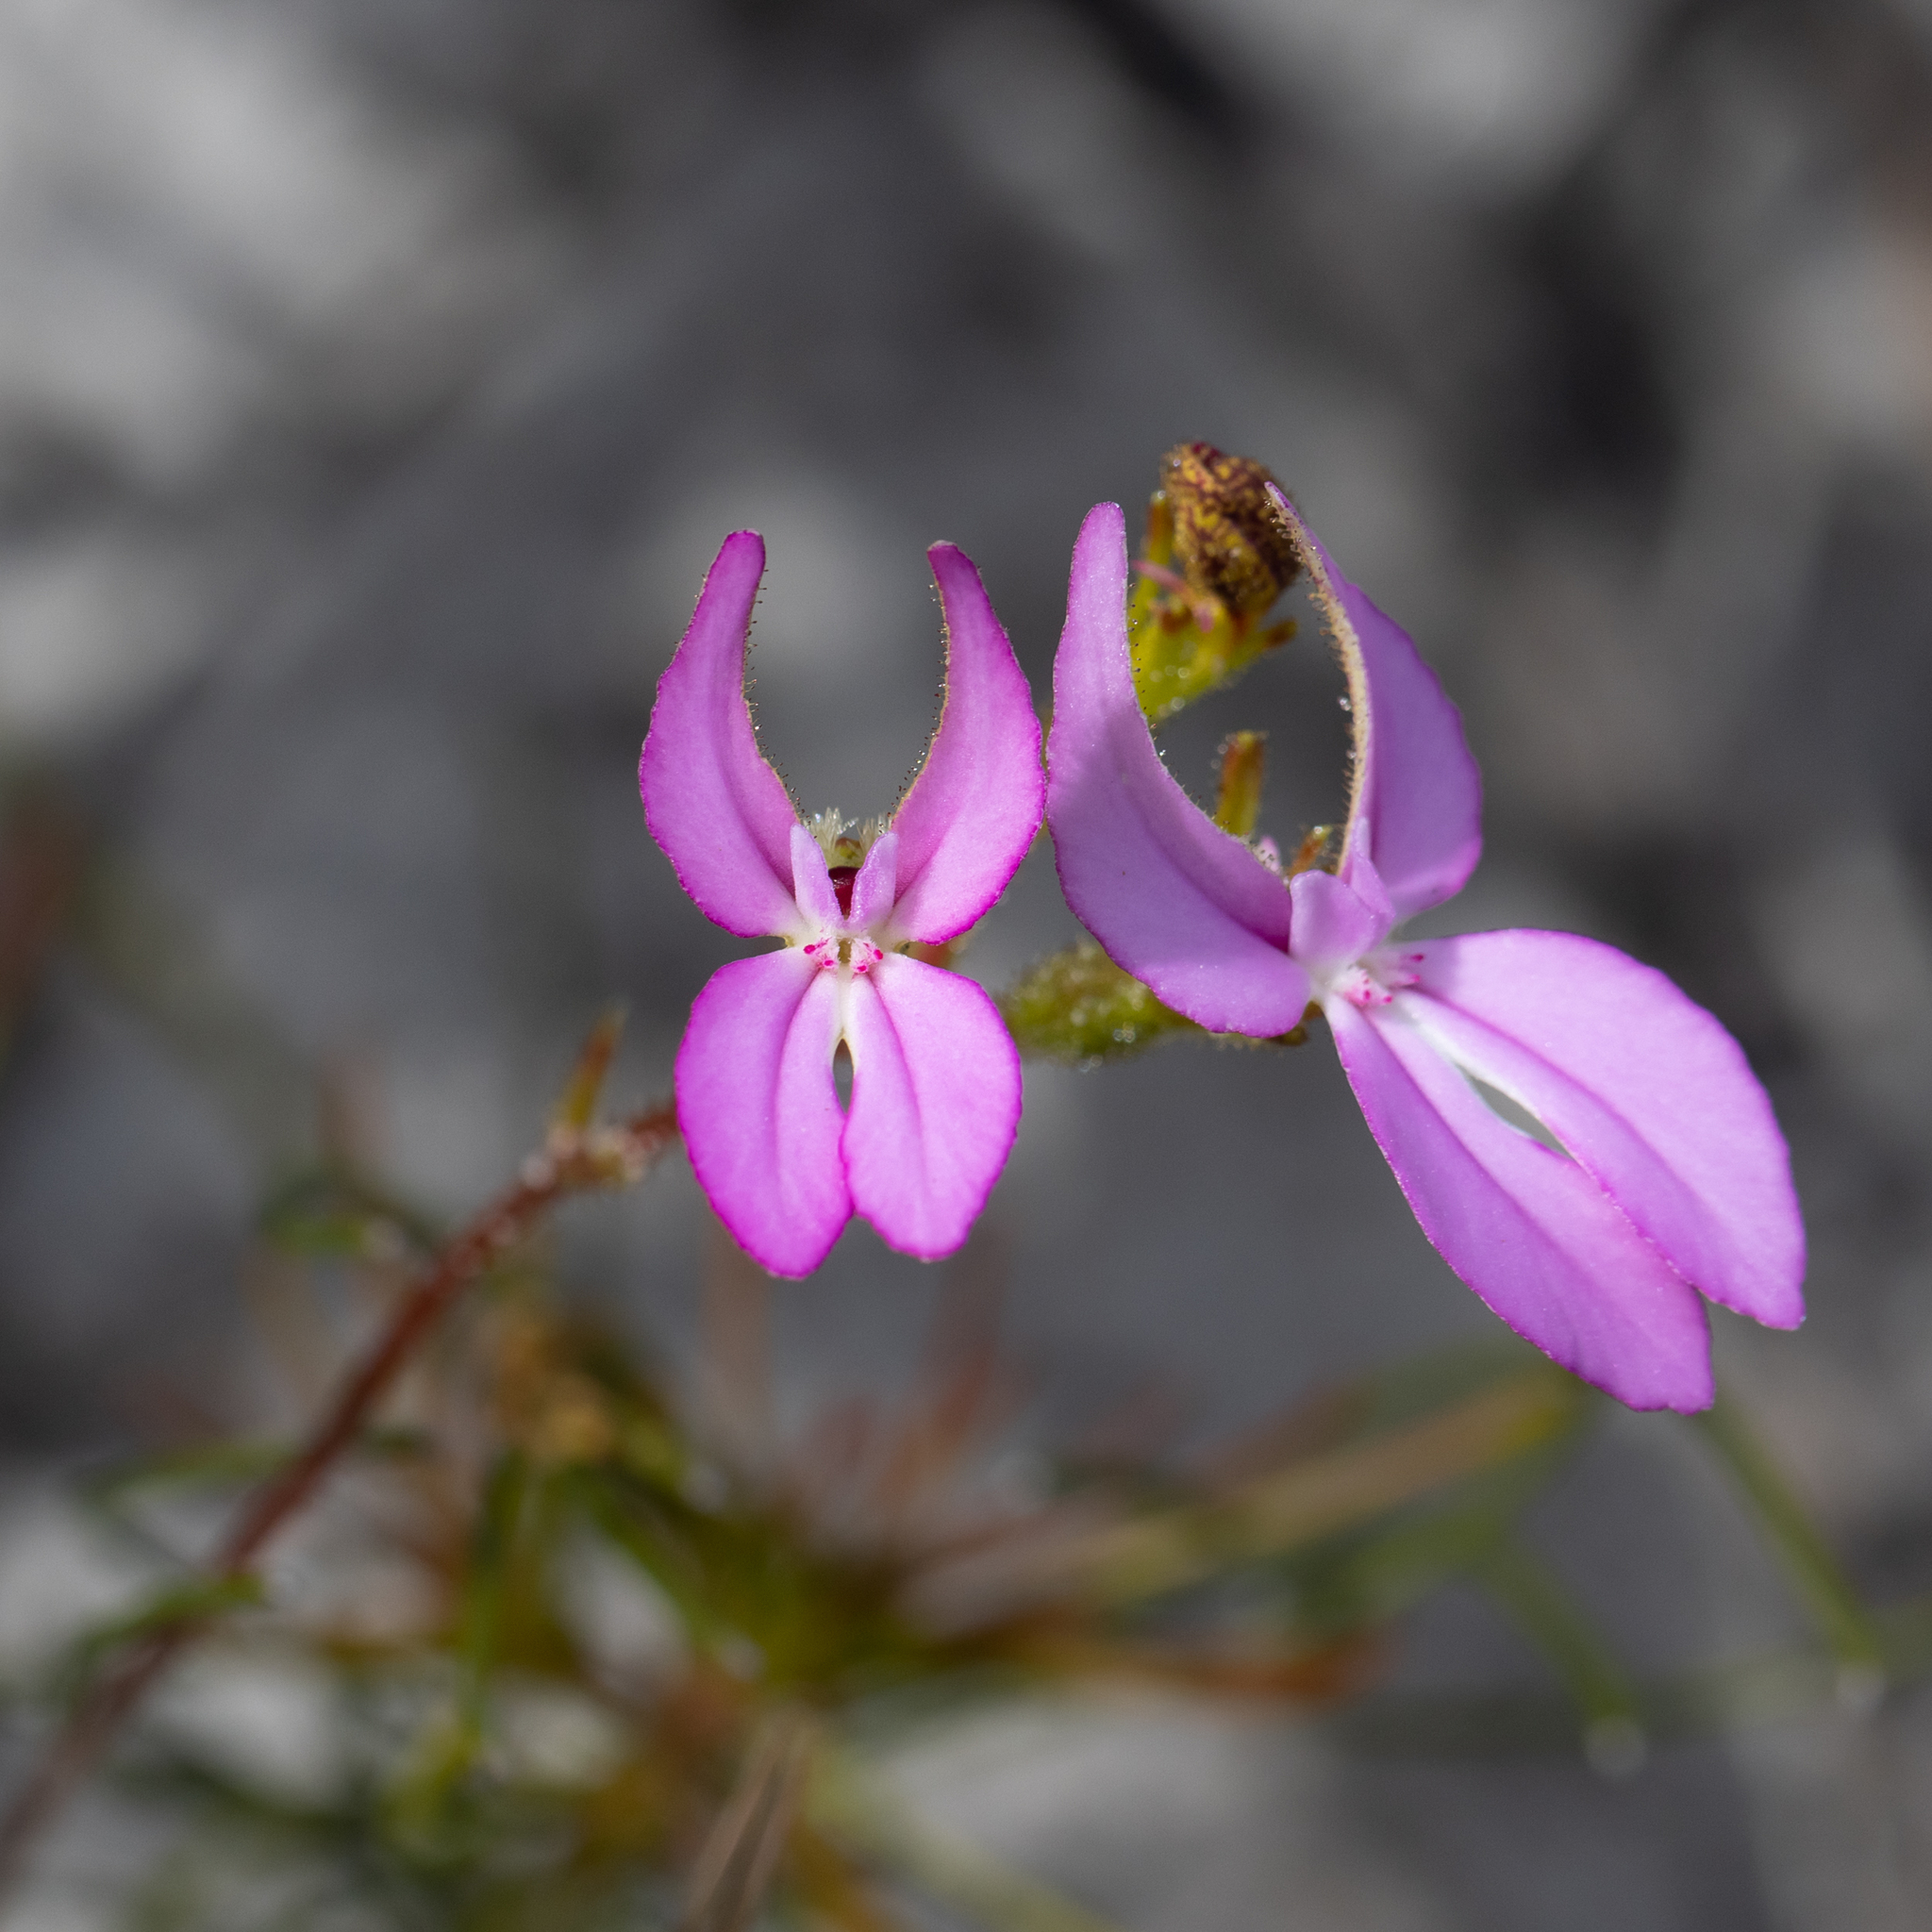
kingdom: Plantae
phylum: Tracheophyta
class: Magnoliopsida
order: Asterales
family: Stylidiaceae
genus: Stylidium
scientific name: Stylidium macranthum
